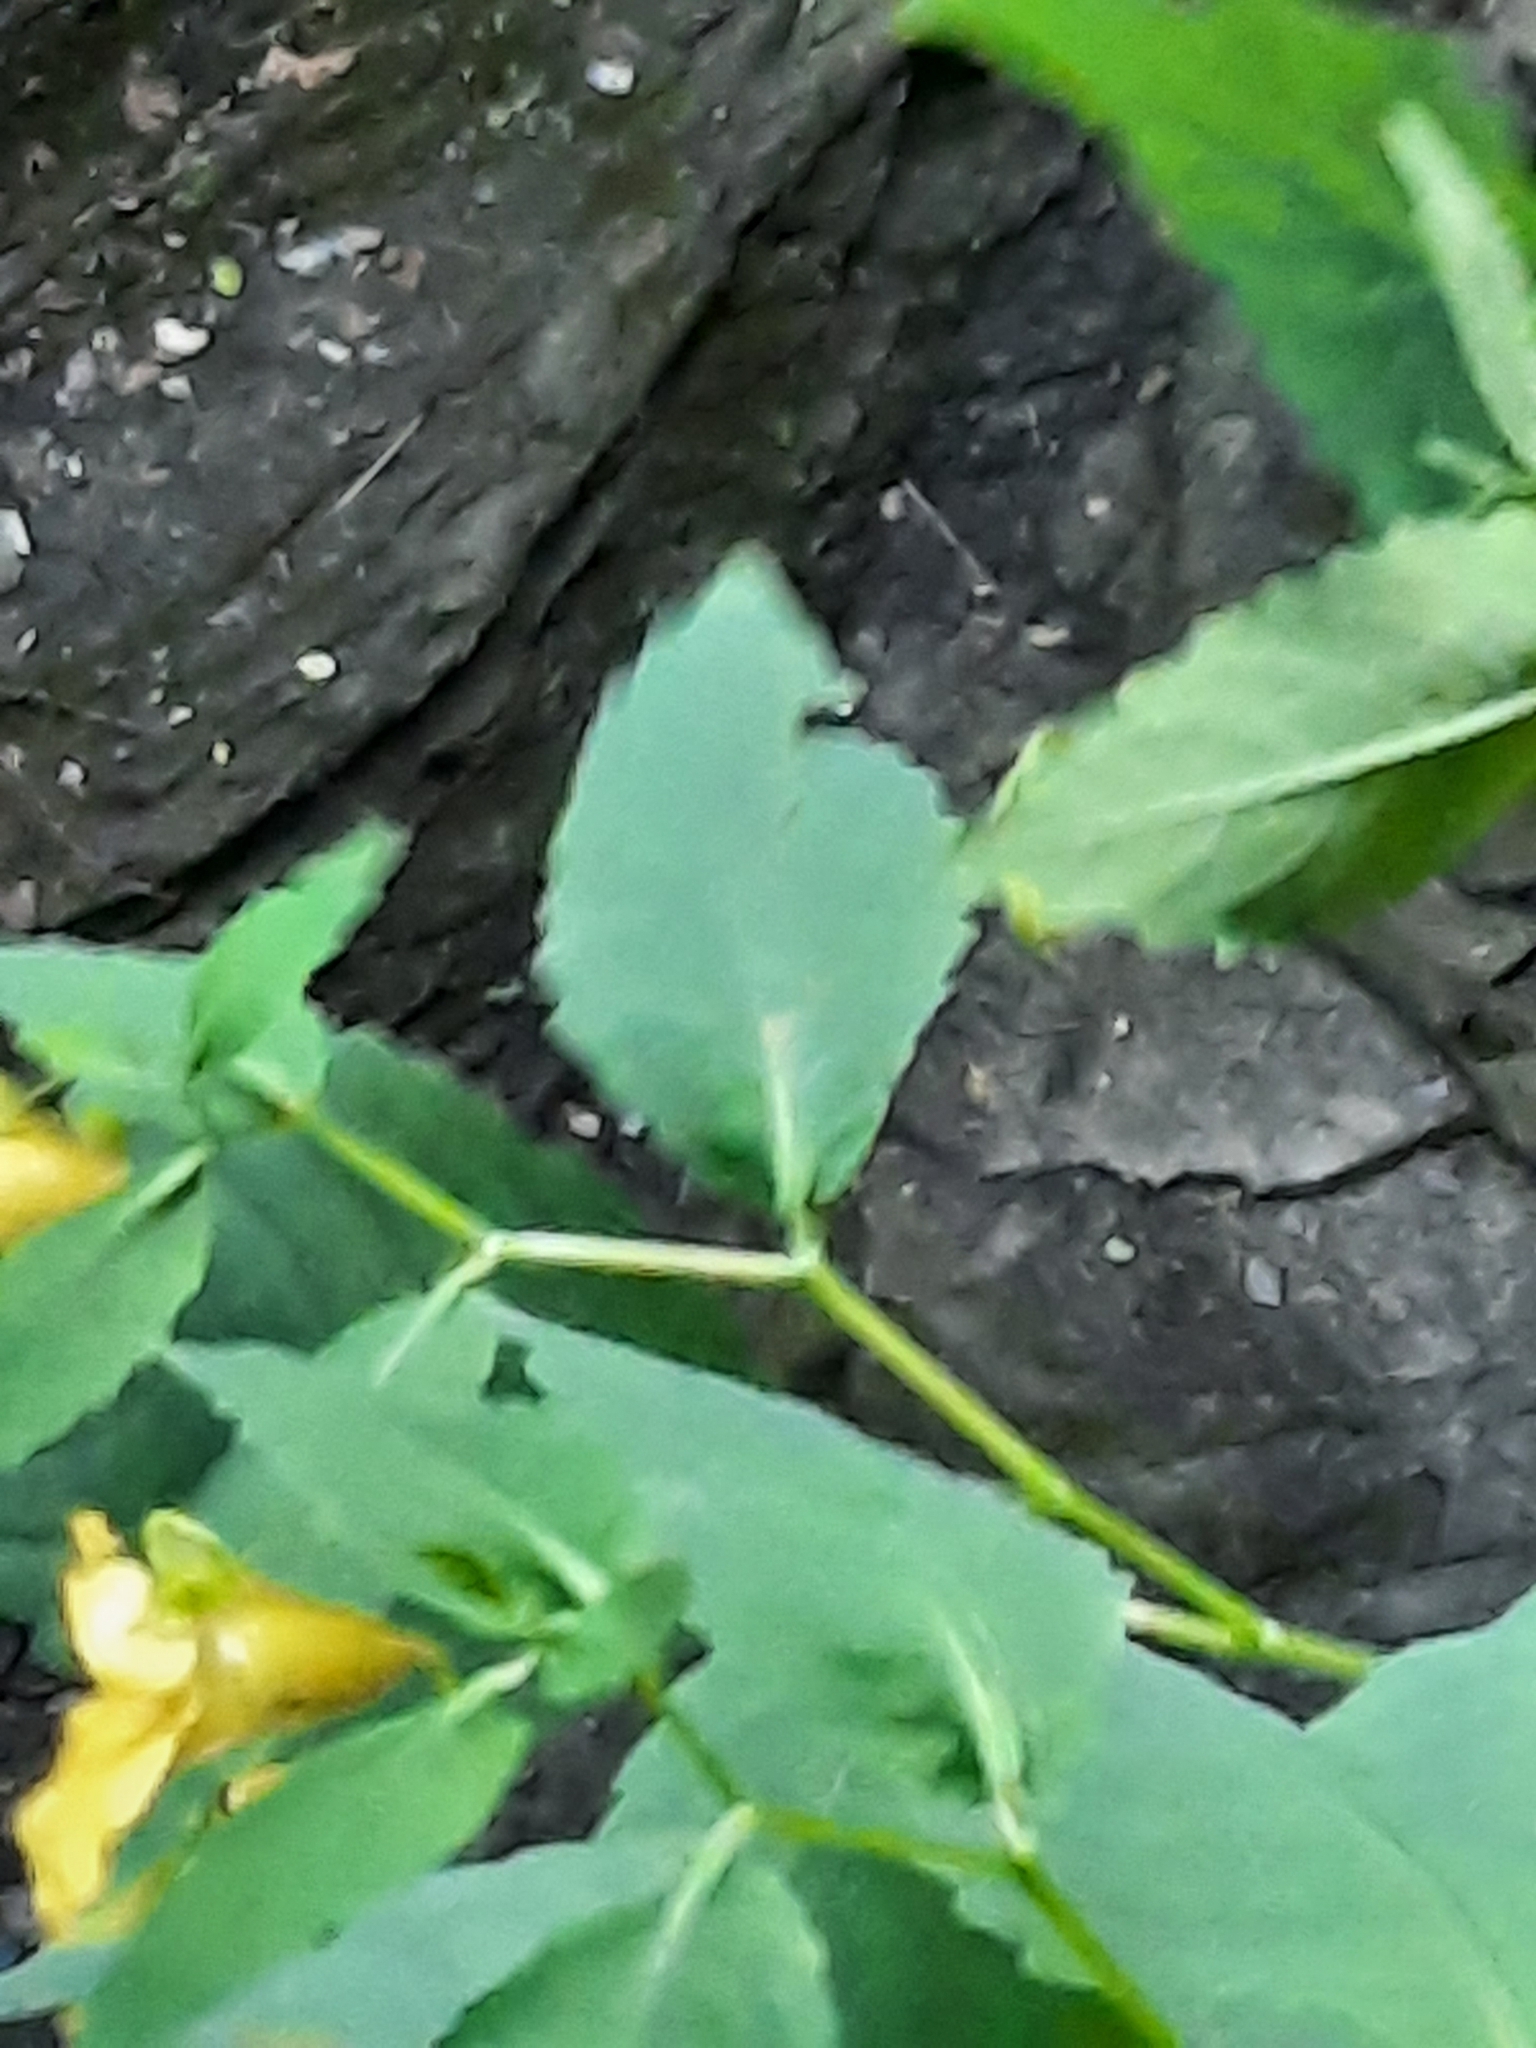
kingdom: Plantae
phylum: Tracheophyta
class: Magnoliopsida
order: Ericales
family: Balsaminaceae
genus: Impatiens
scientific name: Impatiens pallida
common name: Pale snapweed
